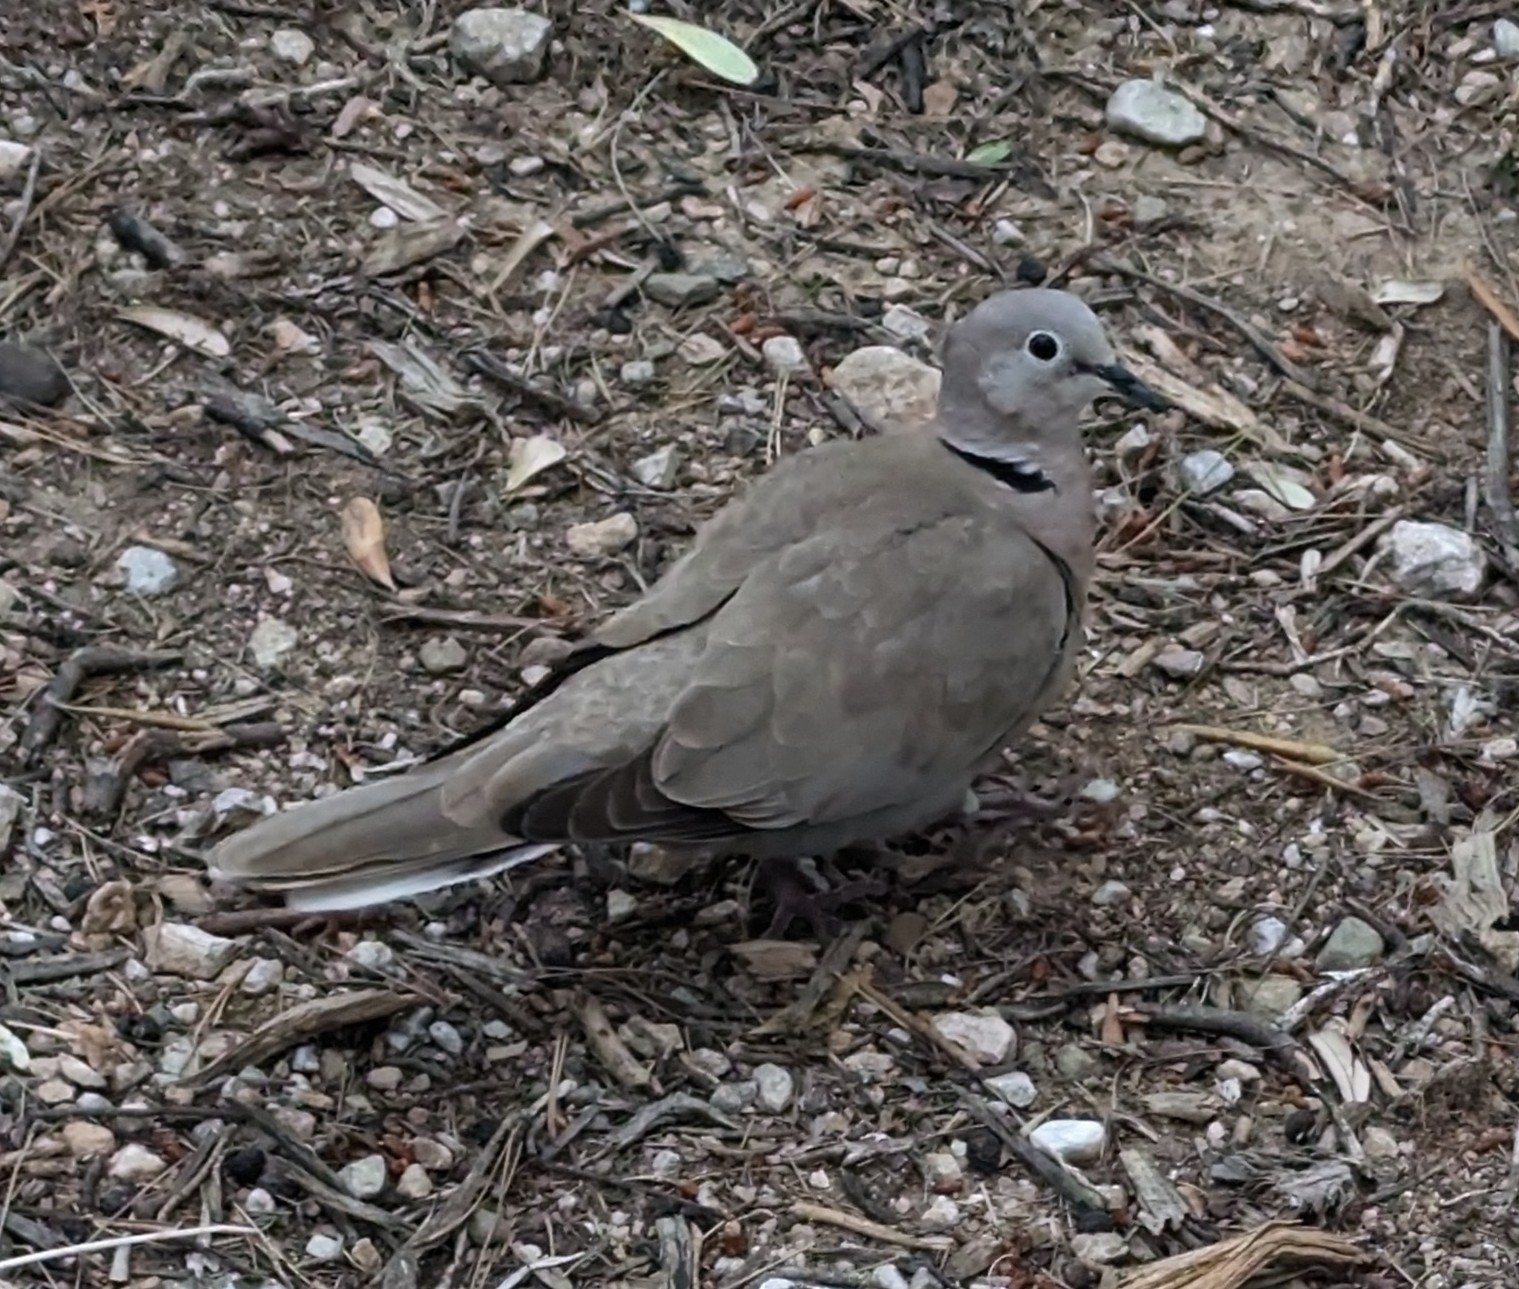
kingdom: Animalia
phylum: Chordata
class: Aves
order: Columbiformes
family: Columbidae
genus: Streptopelia
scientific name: Streptopelia decaocto
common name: Eurasian collared dove
